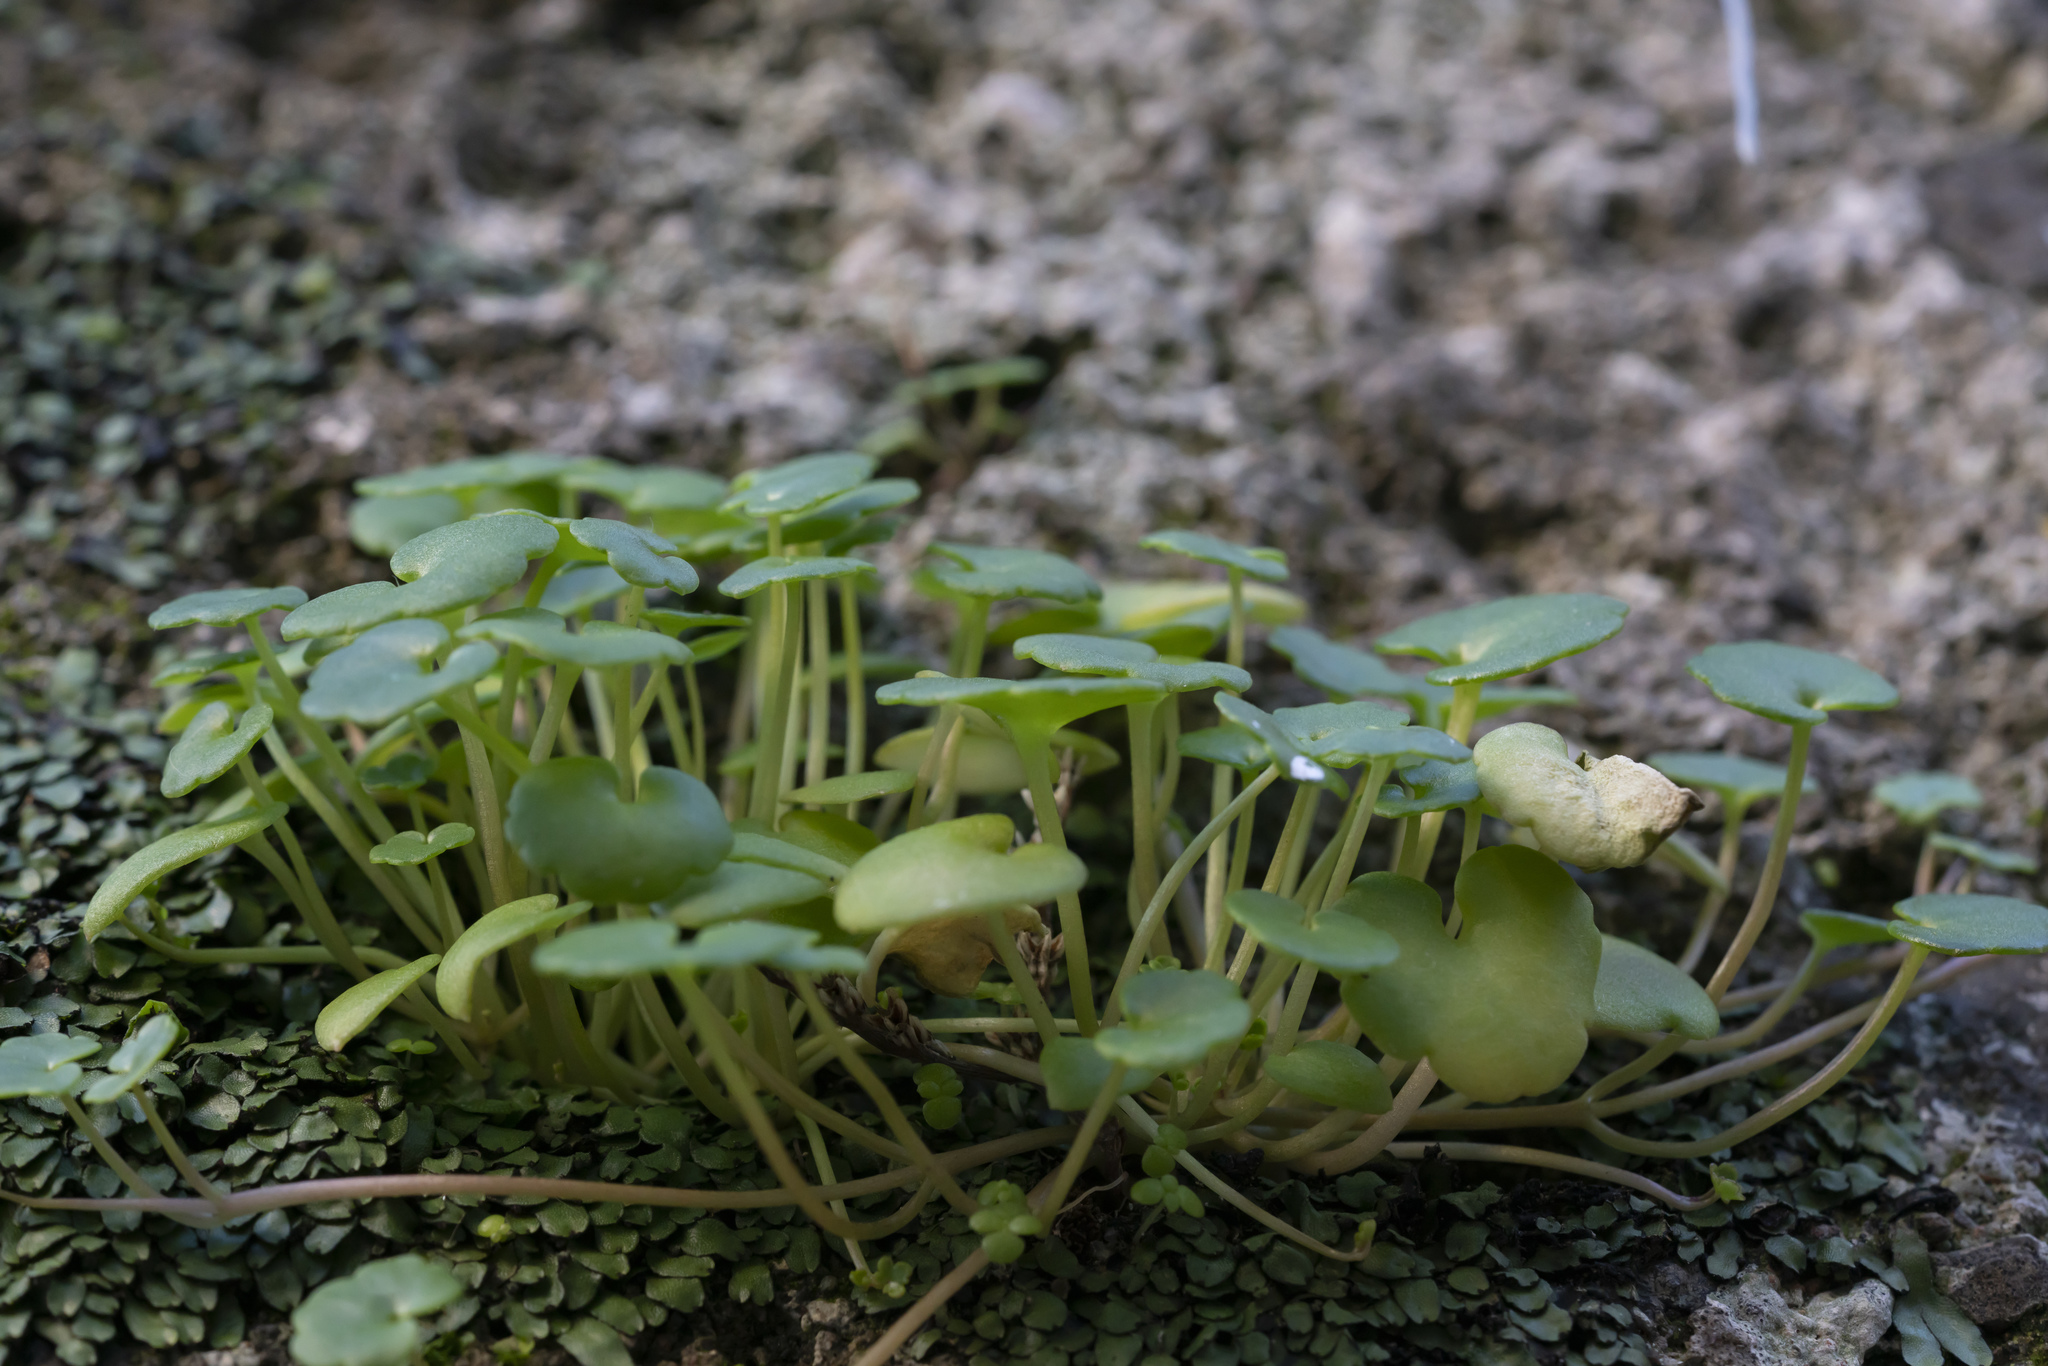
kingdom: Plantae
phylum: Tracheophyta
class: Magnoliopsida
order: Lamiales
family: Plantaginaceae
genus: Cymbalaria
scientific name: Cymbalaria longipes
